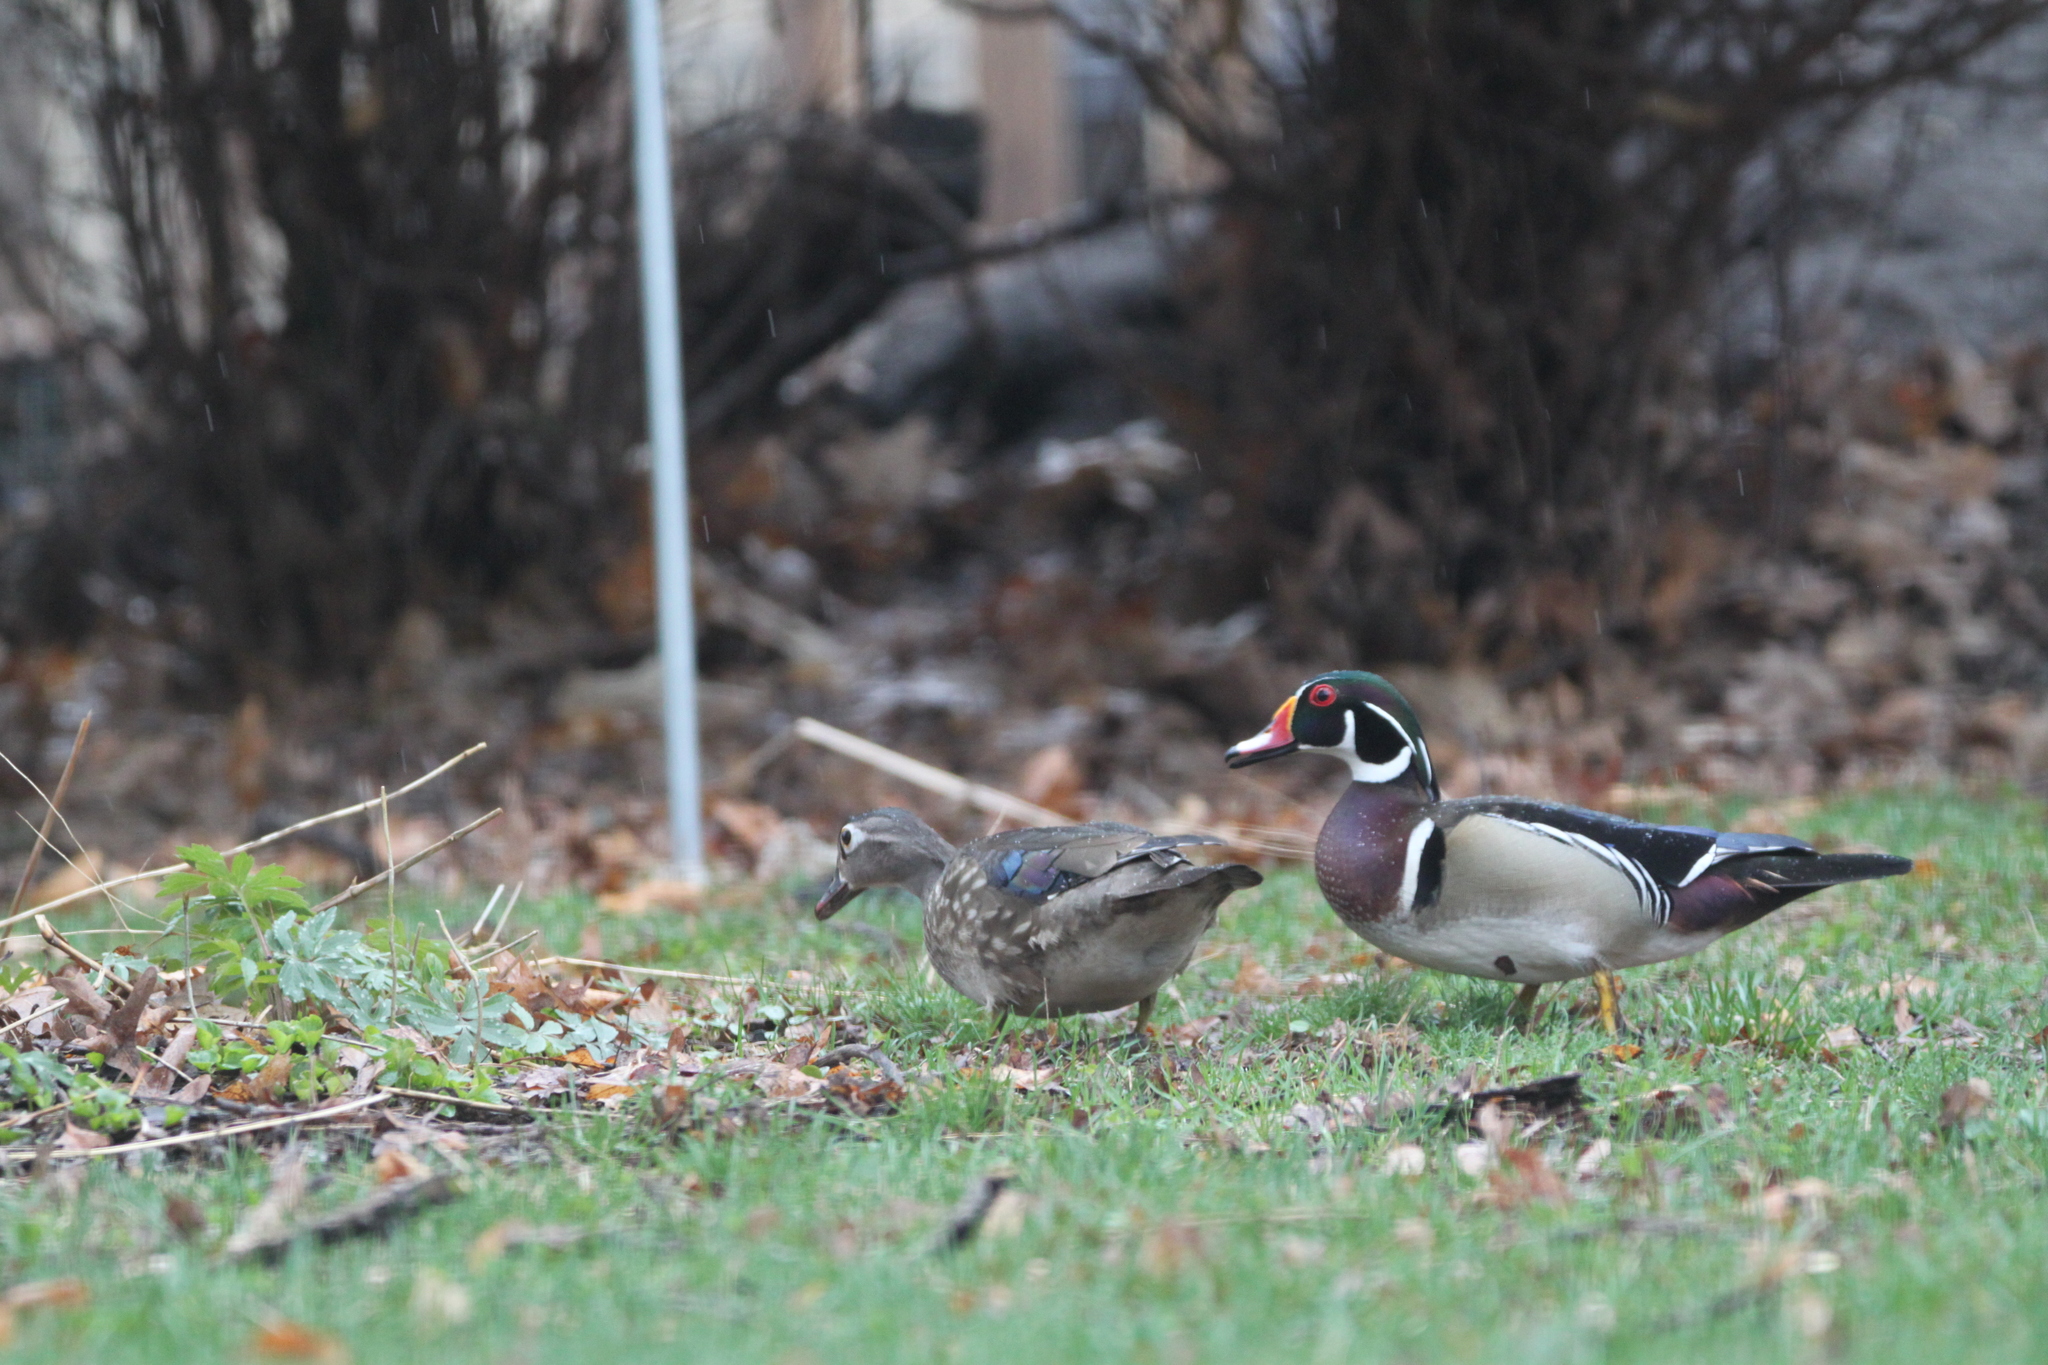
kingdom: Animalia
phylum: Chordata
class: Aves
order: Anseriformes
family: Anatidae
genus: Aix
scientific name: Aix sponsa
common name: Wood duck
